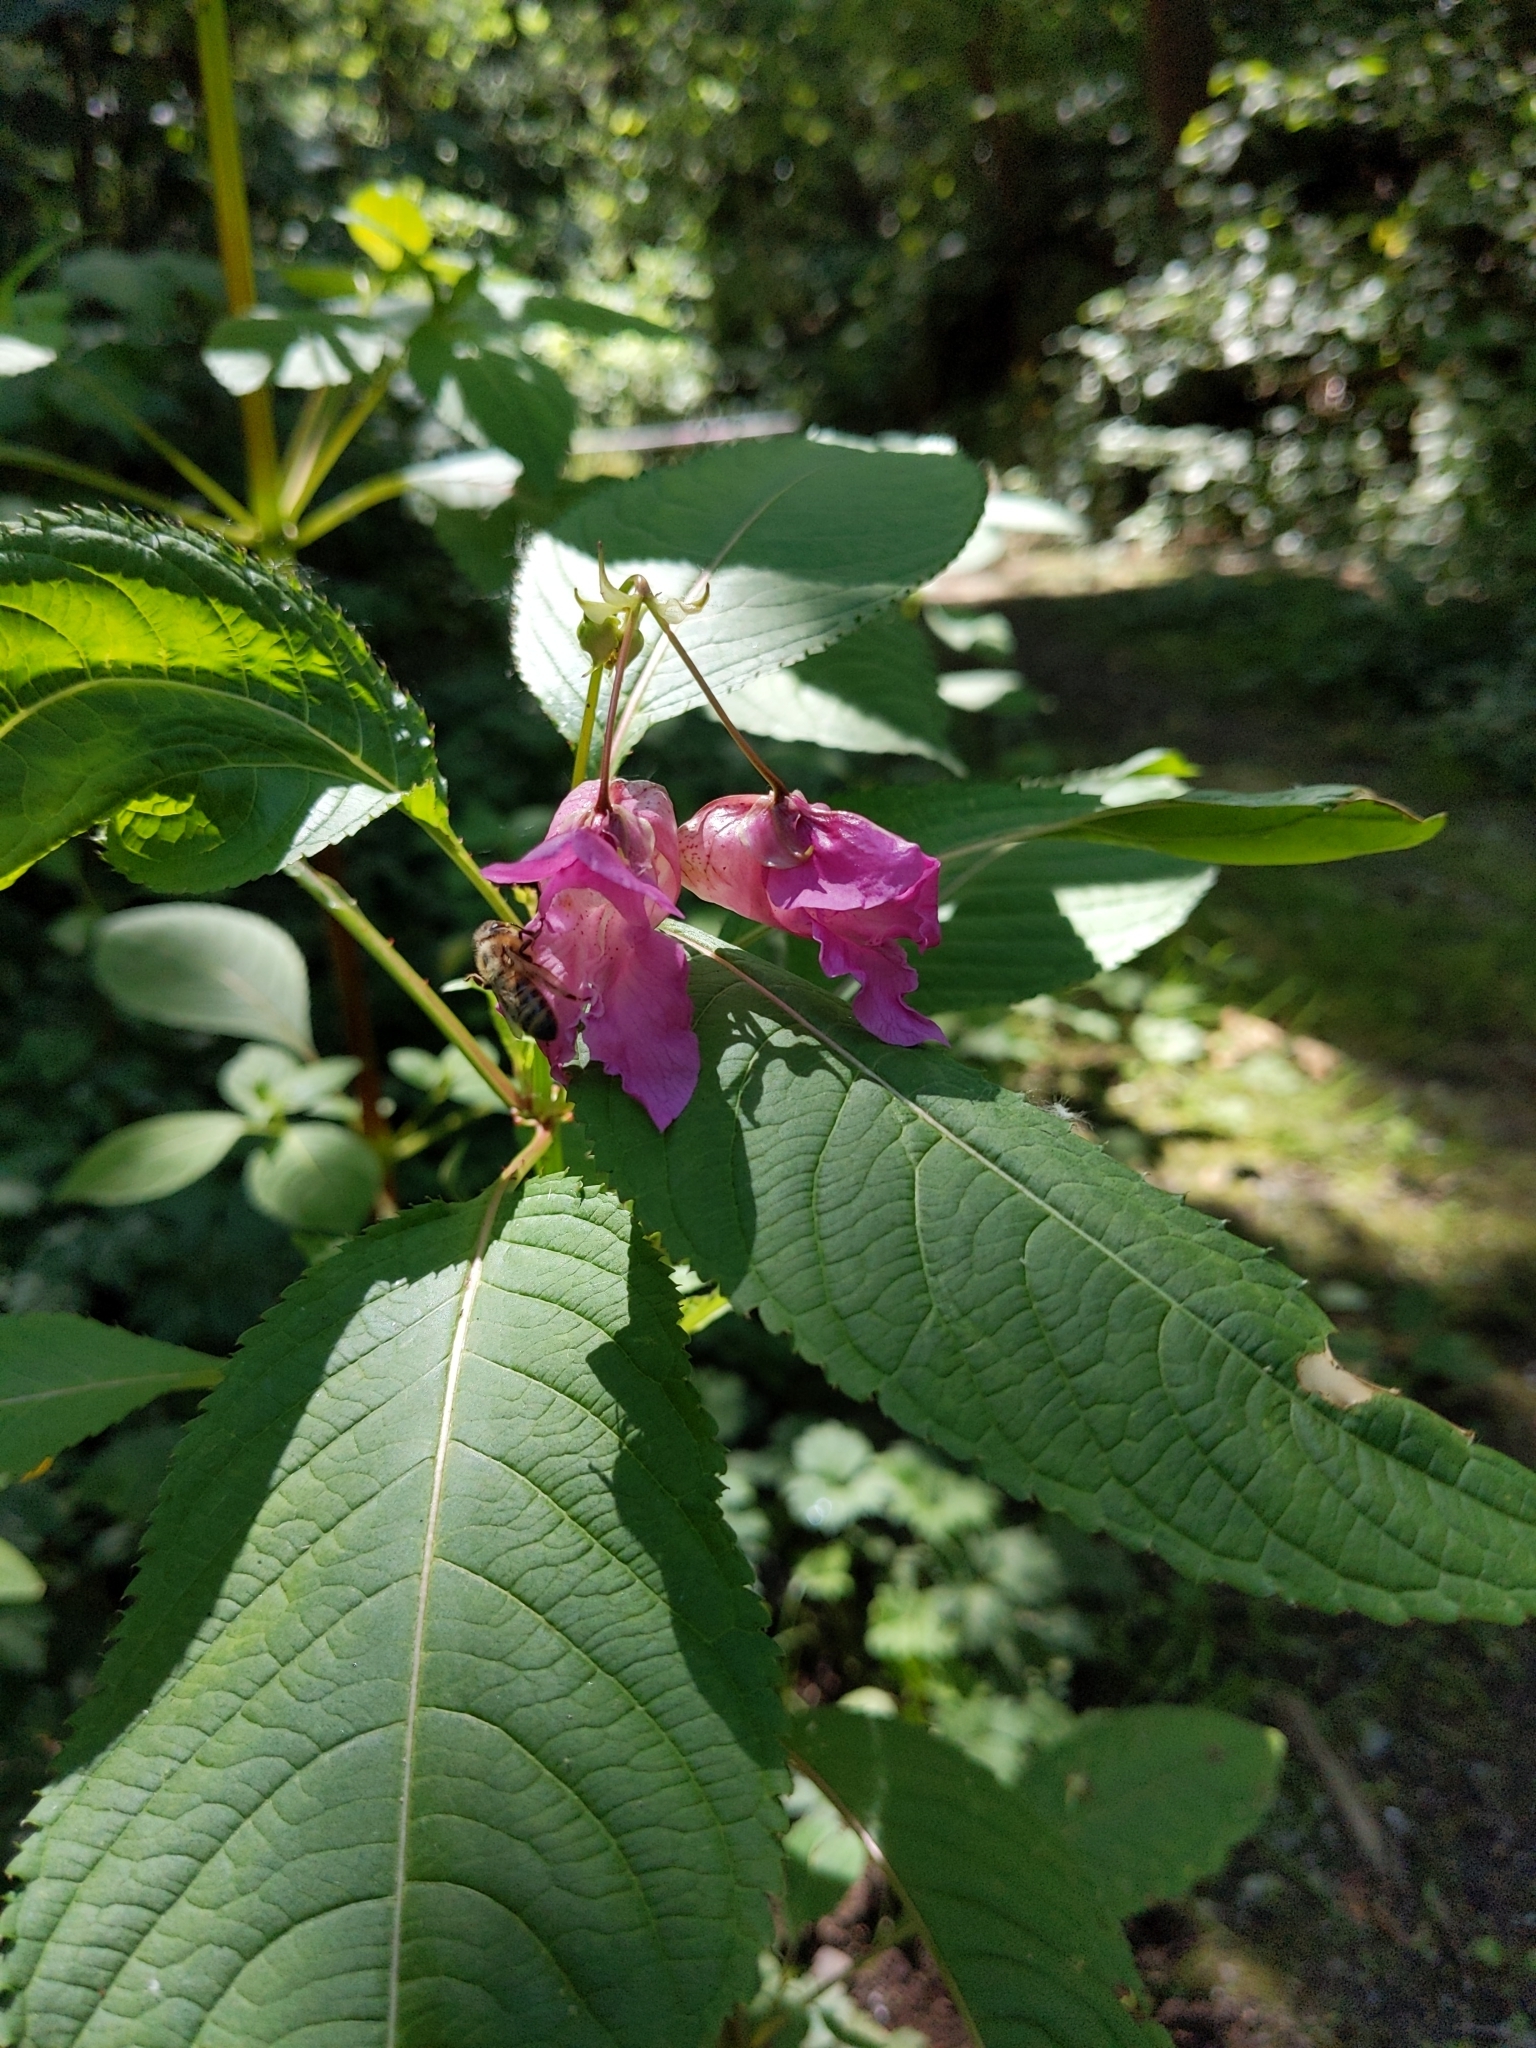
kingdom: Animalia
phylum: Arthropoda
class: Insecta
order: Hymenoptera
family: Apidae
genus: Apis
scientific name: Apis mellifera
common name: Honey bee
